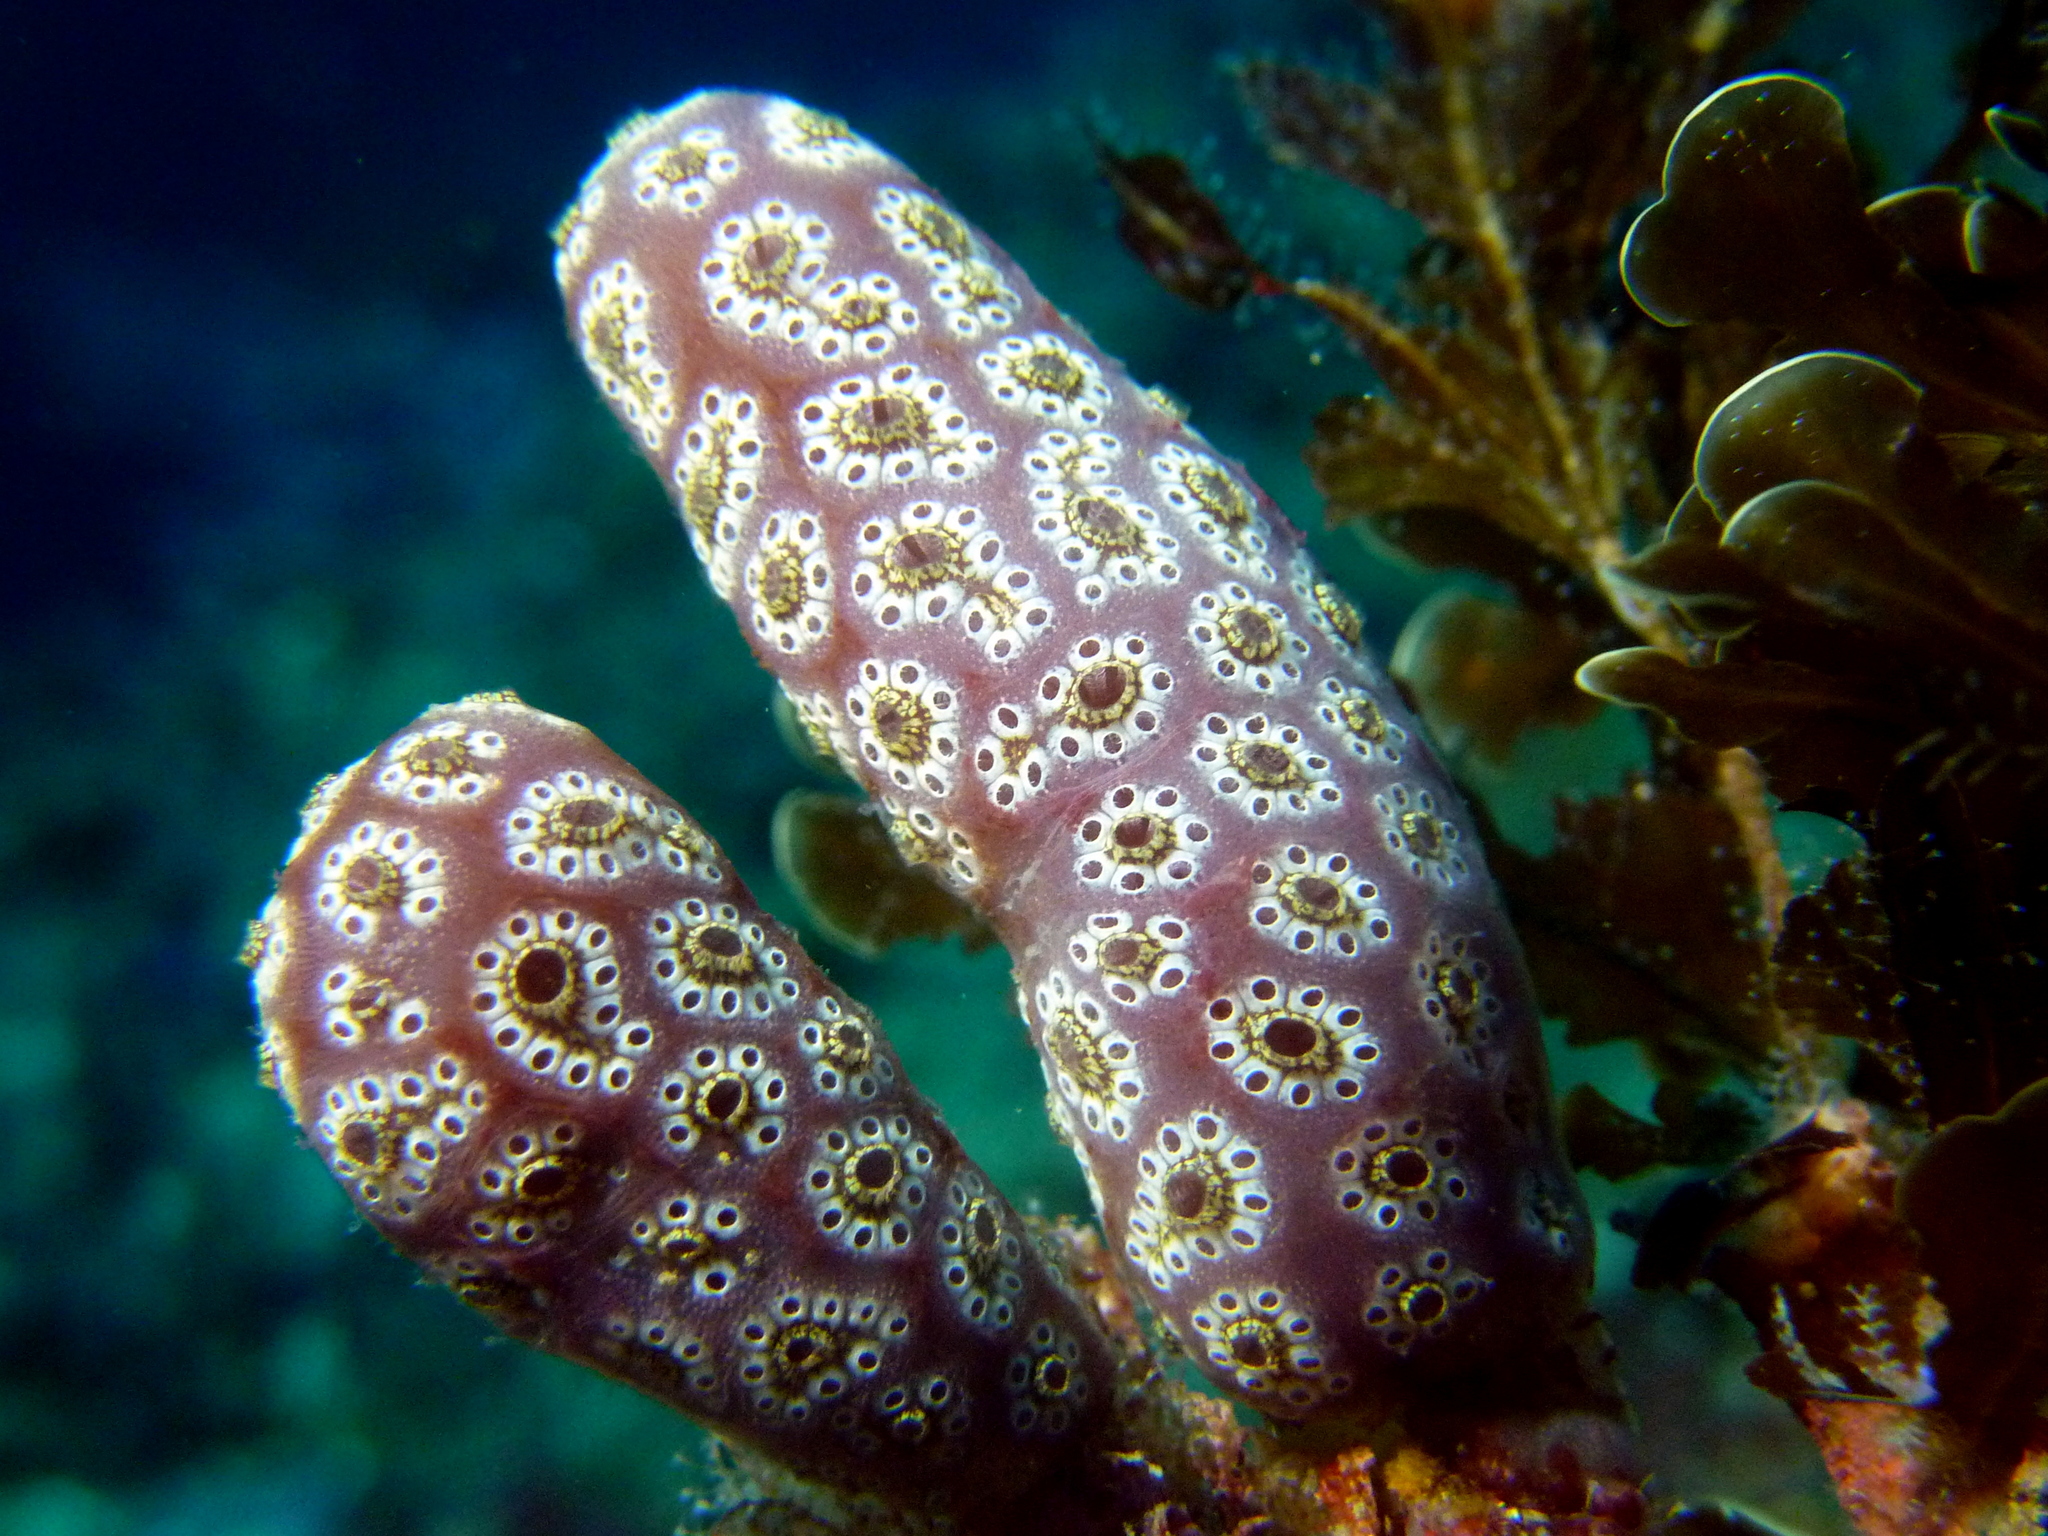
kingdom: Animalia
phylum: Chordata
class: Ascidiacea
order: Stolidobranchia
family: Styelidae
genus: Botrylloides
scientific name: Botrylloides perspicuus
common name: Ascidian
